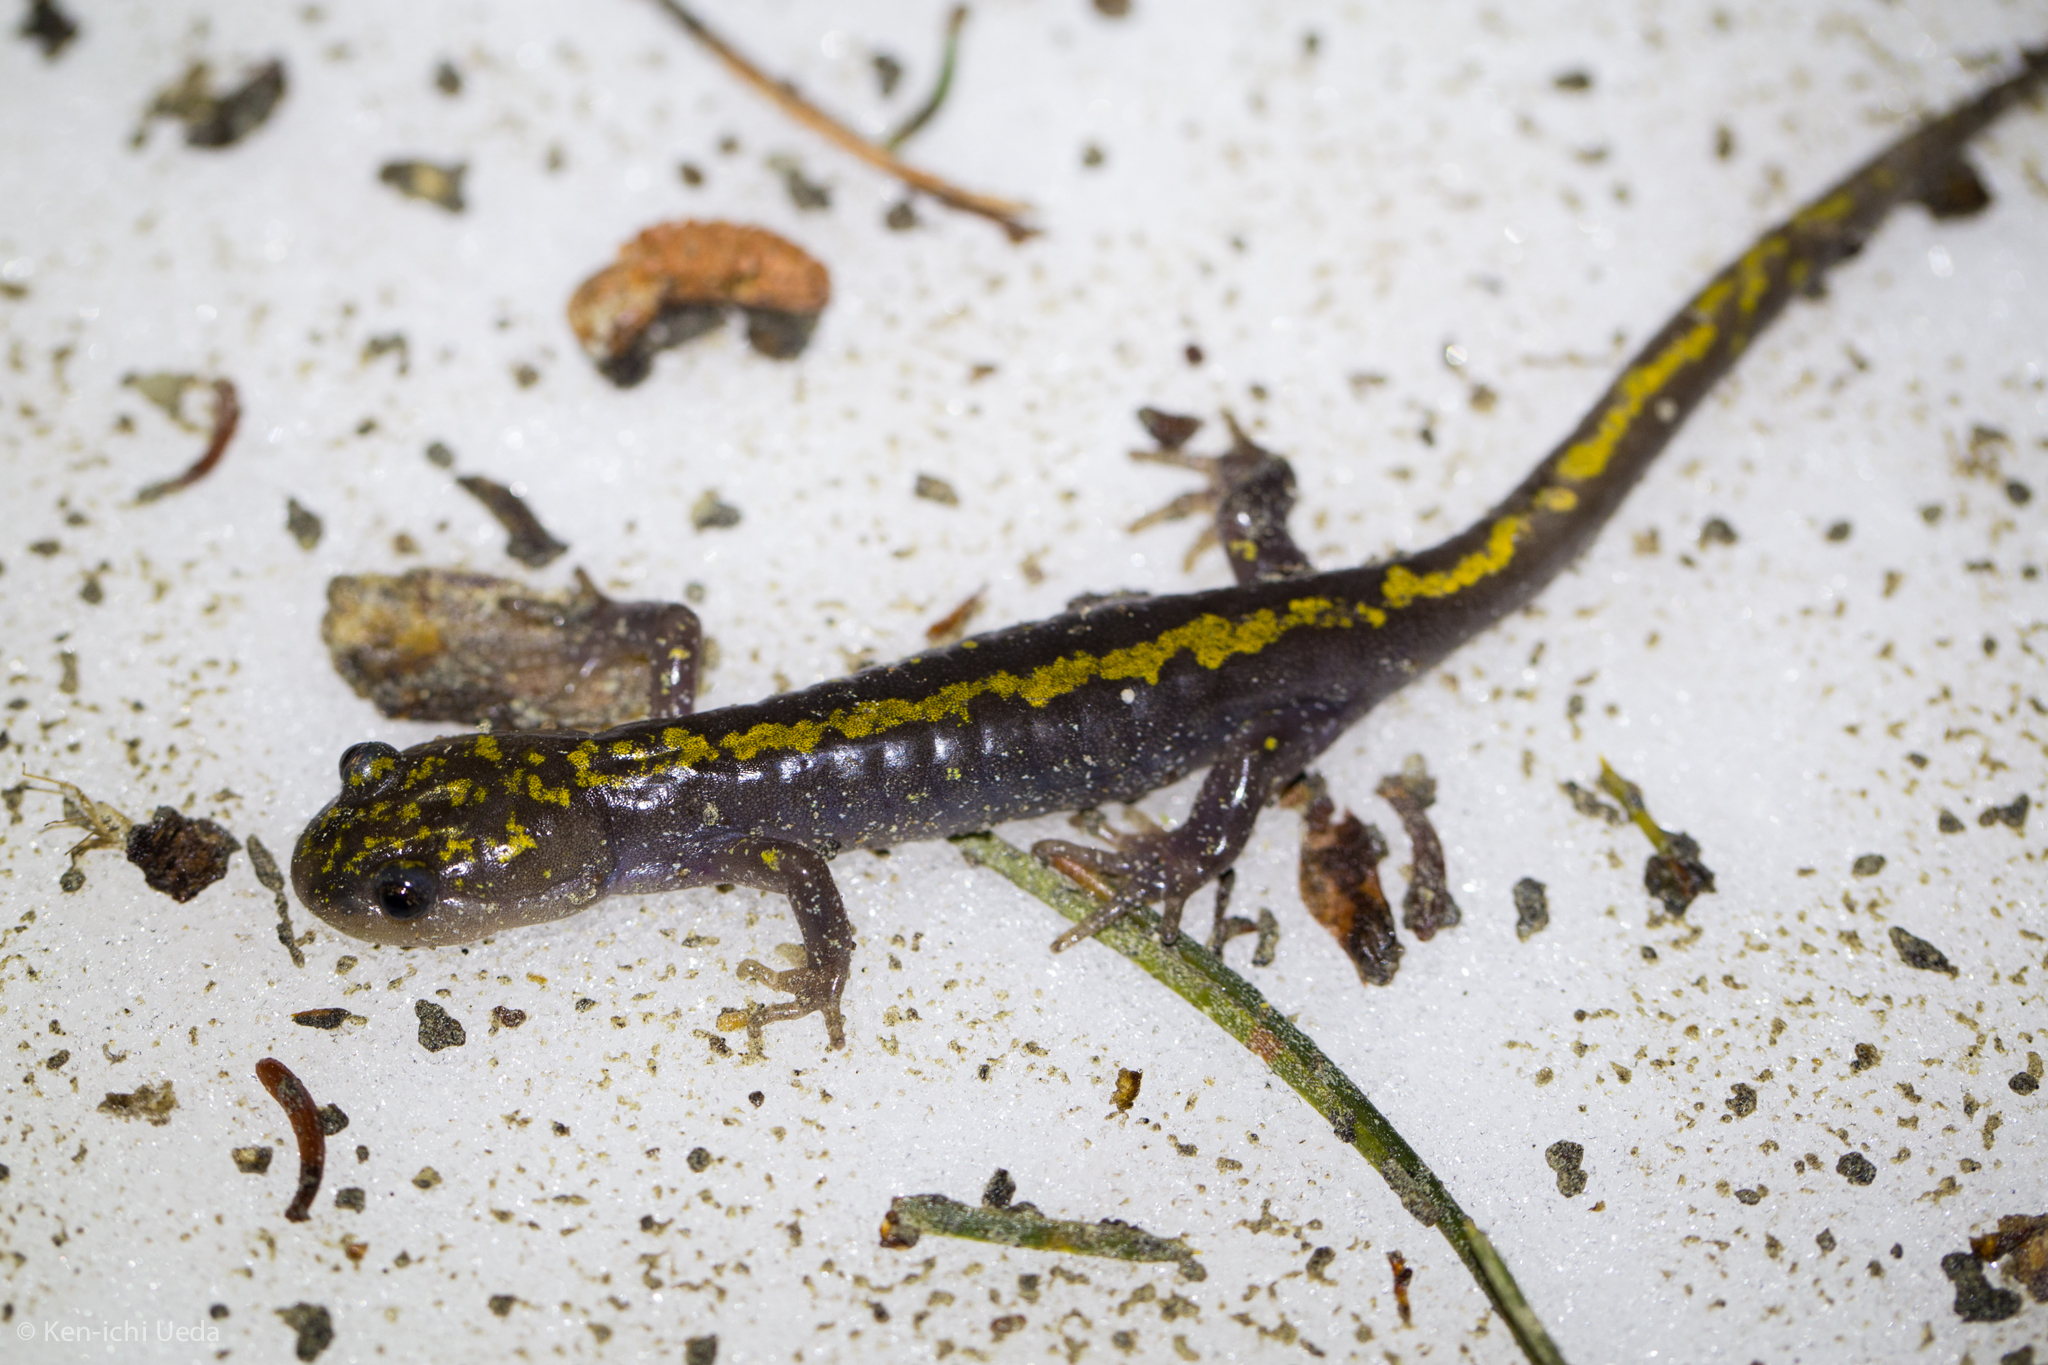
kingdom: Animalia
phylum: Chordata
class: Amphibia
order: Caudata
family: Ambystomatidae
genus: Ambystoma
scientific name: Ambystoma macrodactylum
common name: Long-toed salamander
